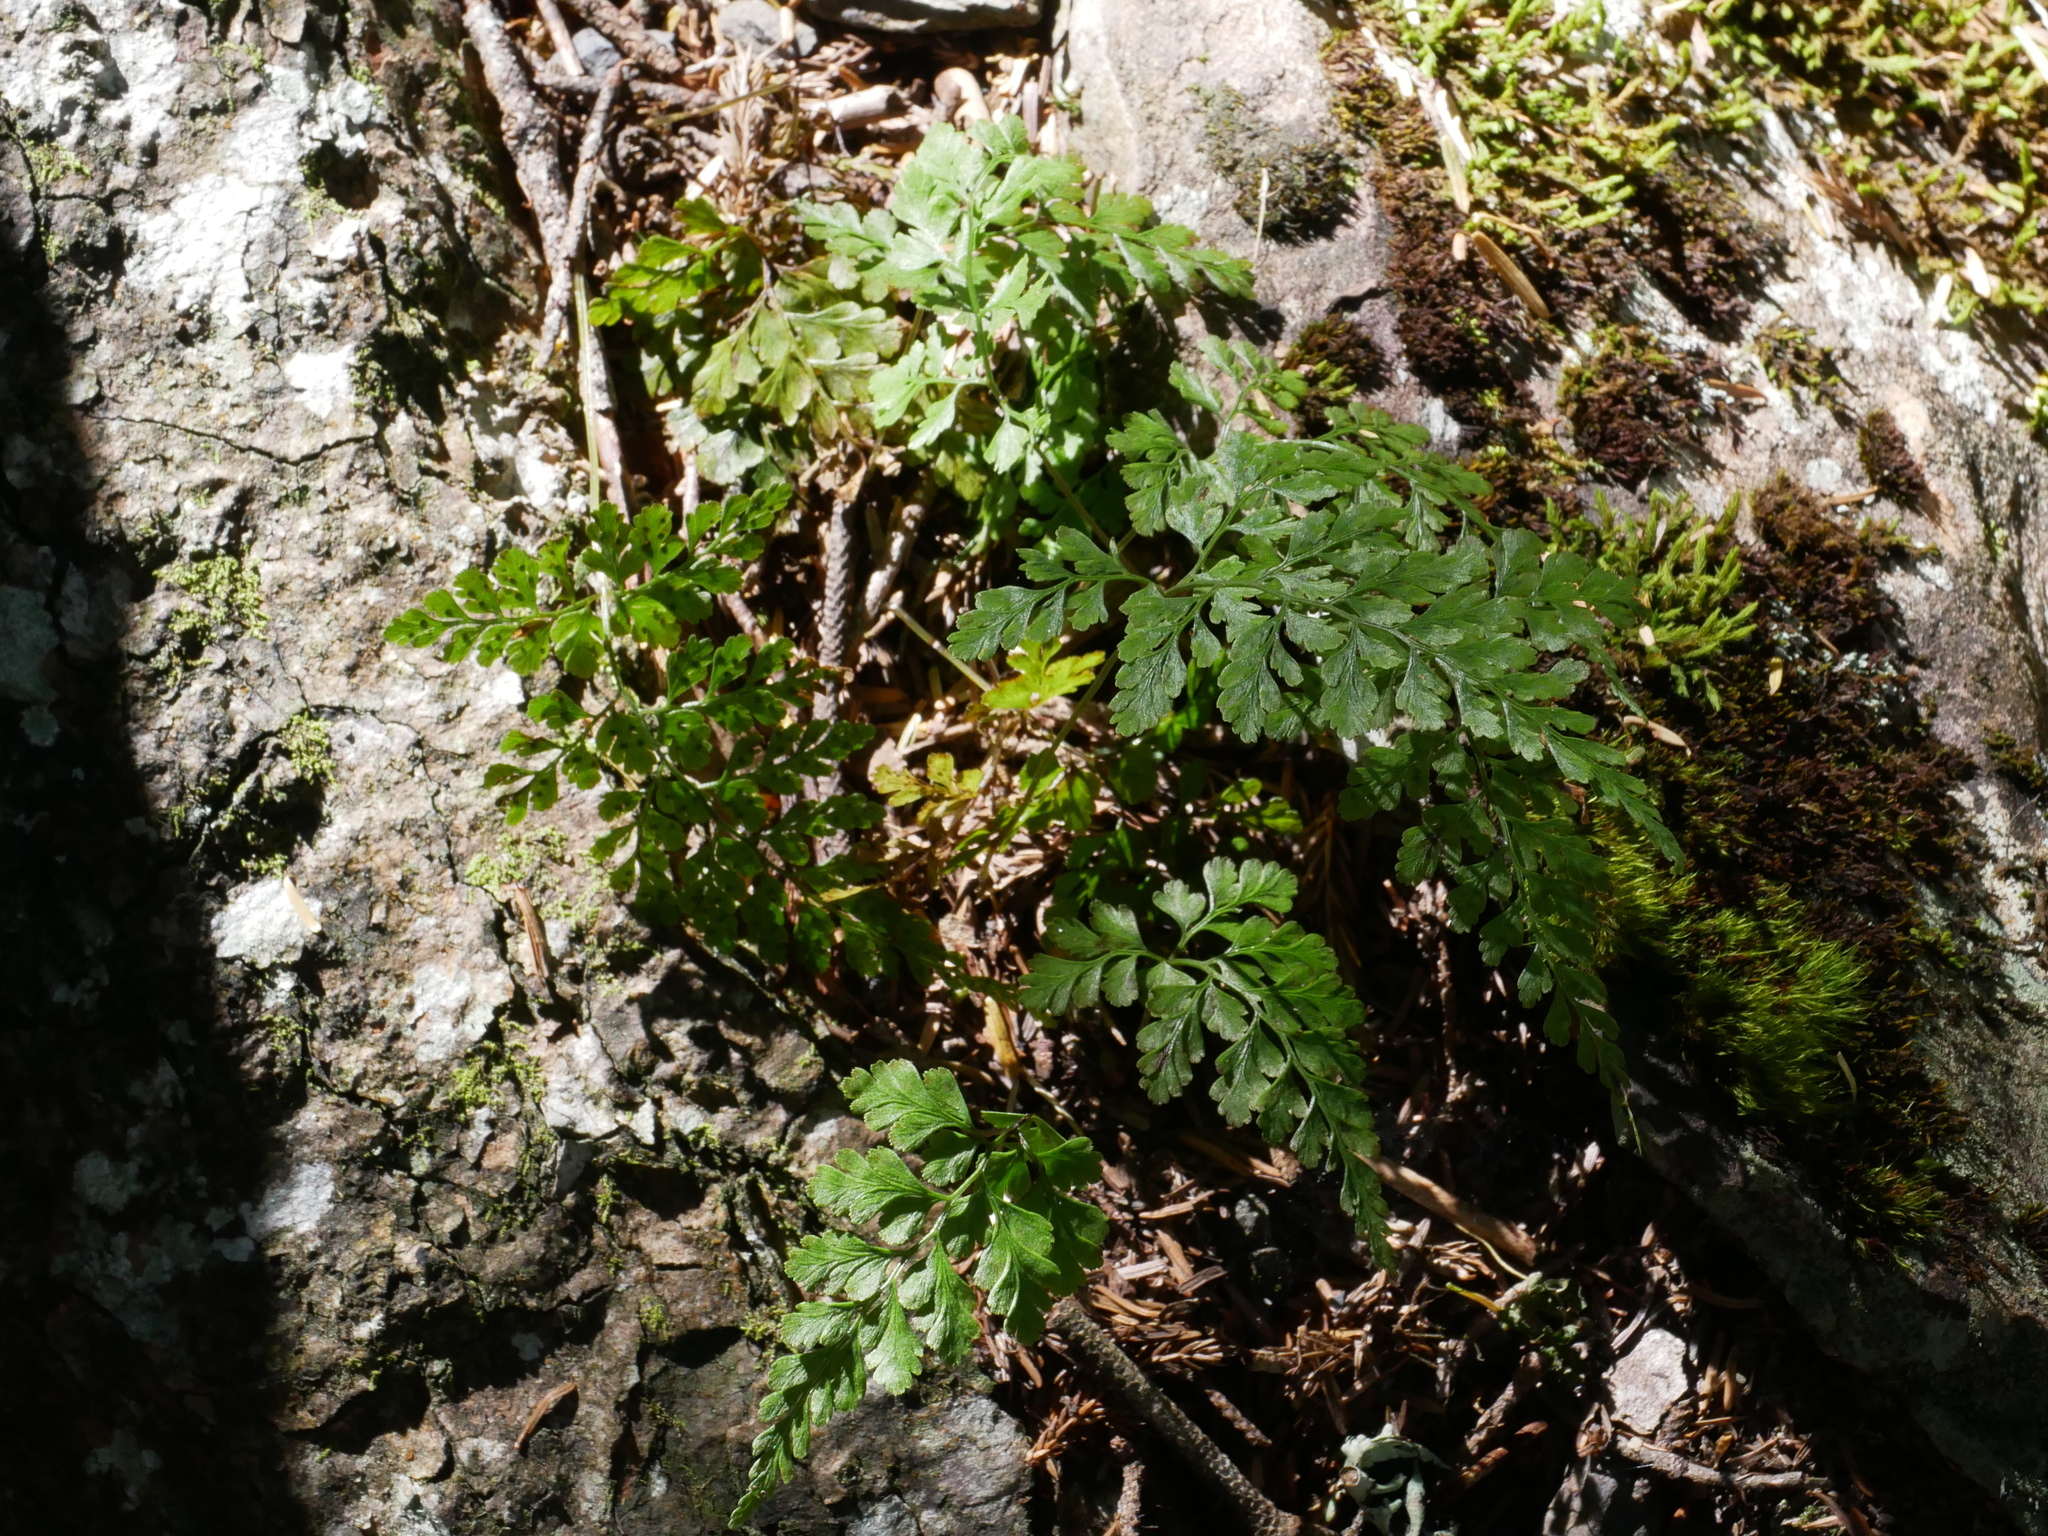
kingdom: Plantae
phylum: Tracheophyta
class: Polypodiopsida
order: Polypodiales
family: Cystopteridaceae
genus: Cystopteris
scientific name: Cystopteris moupinensis
